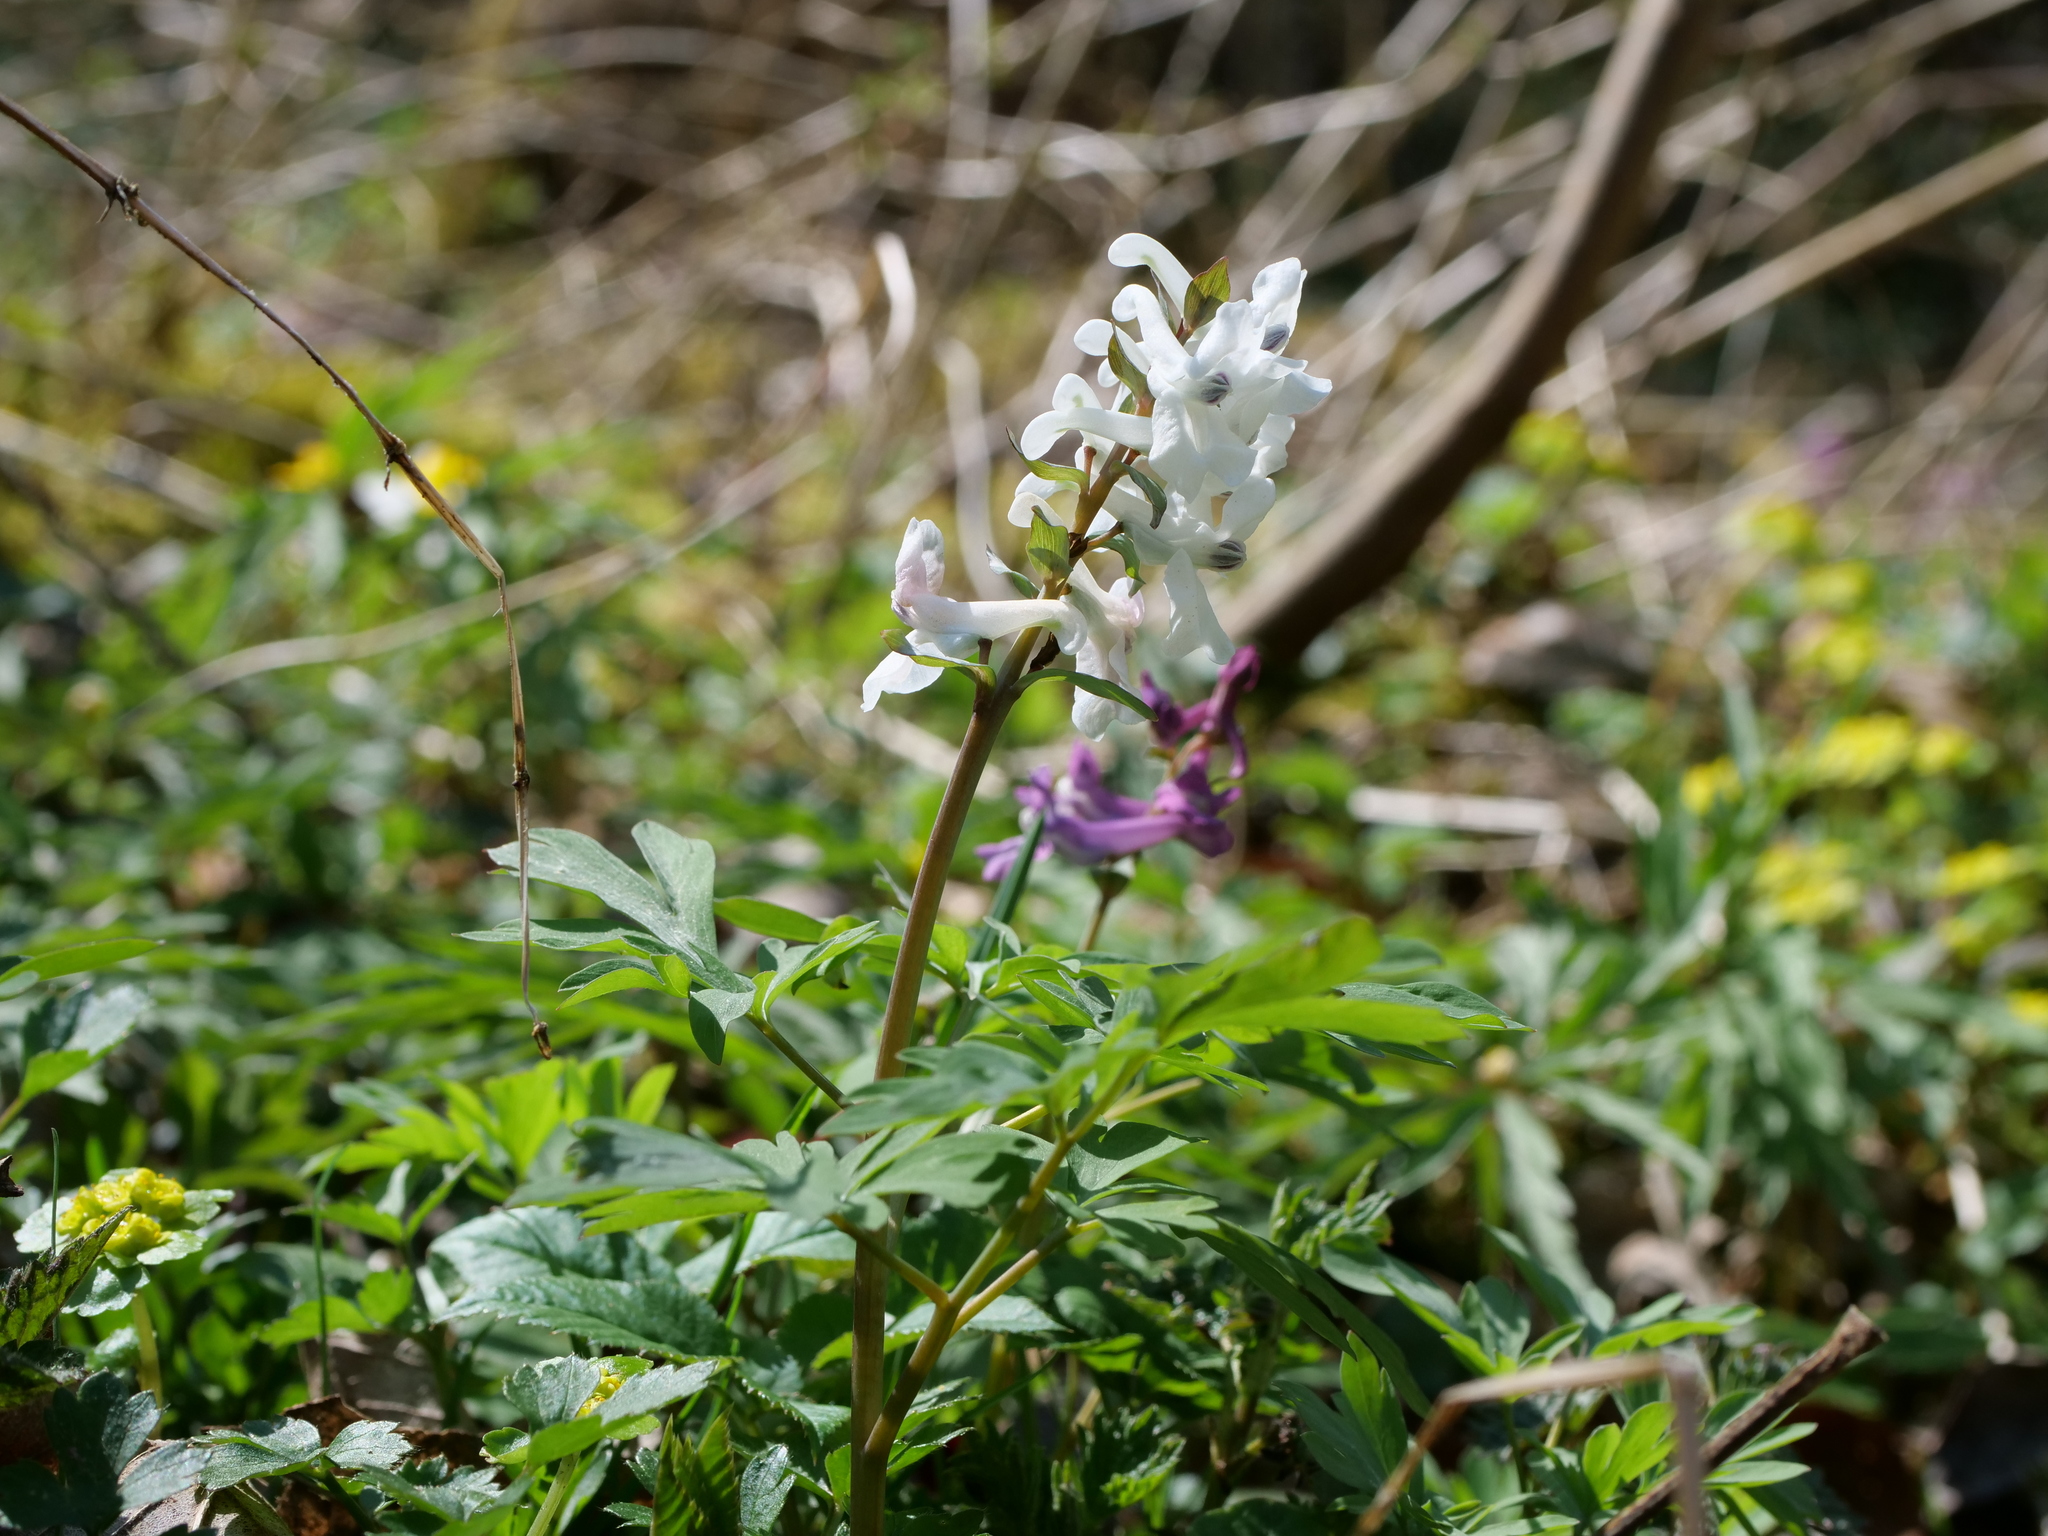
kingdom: Plantae
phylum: Tracheophyta
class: Magnoliopsida
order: Ranunculales
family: Papaveraceae
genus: Corydalis
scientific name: Corydalis cava
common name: Hollowroot
